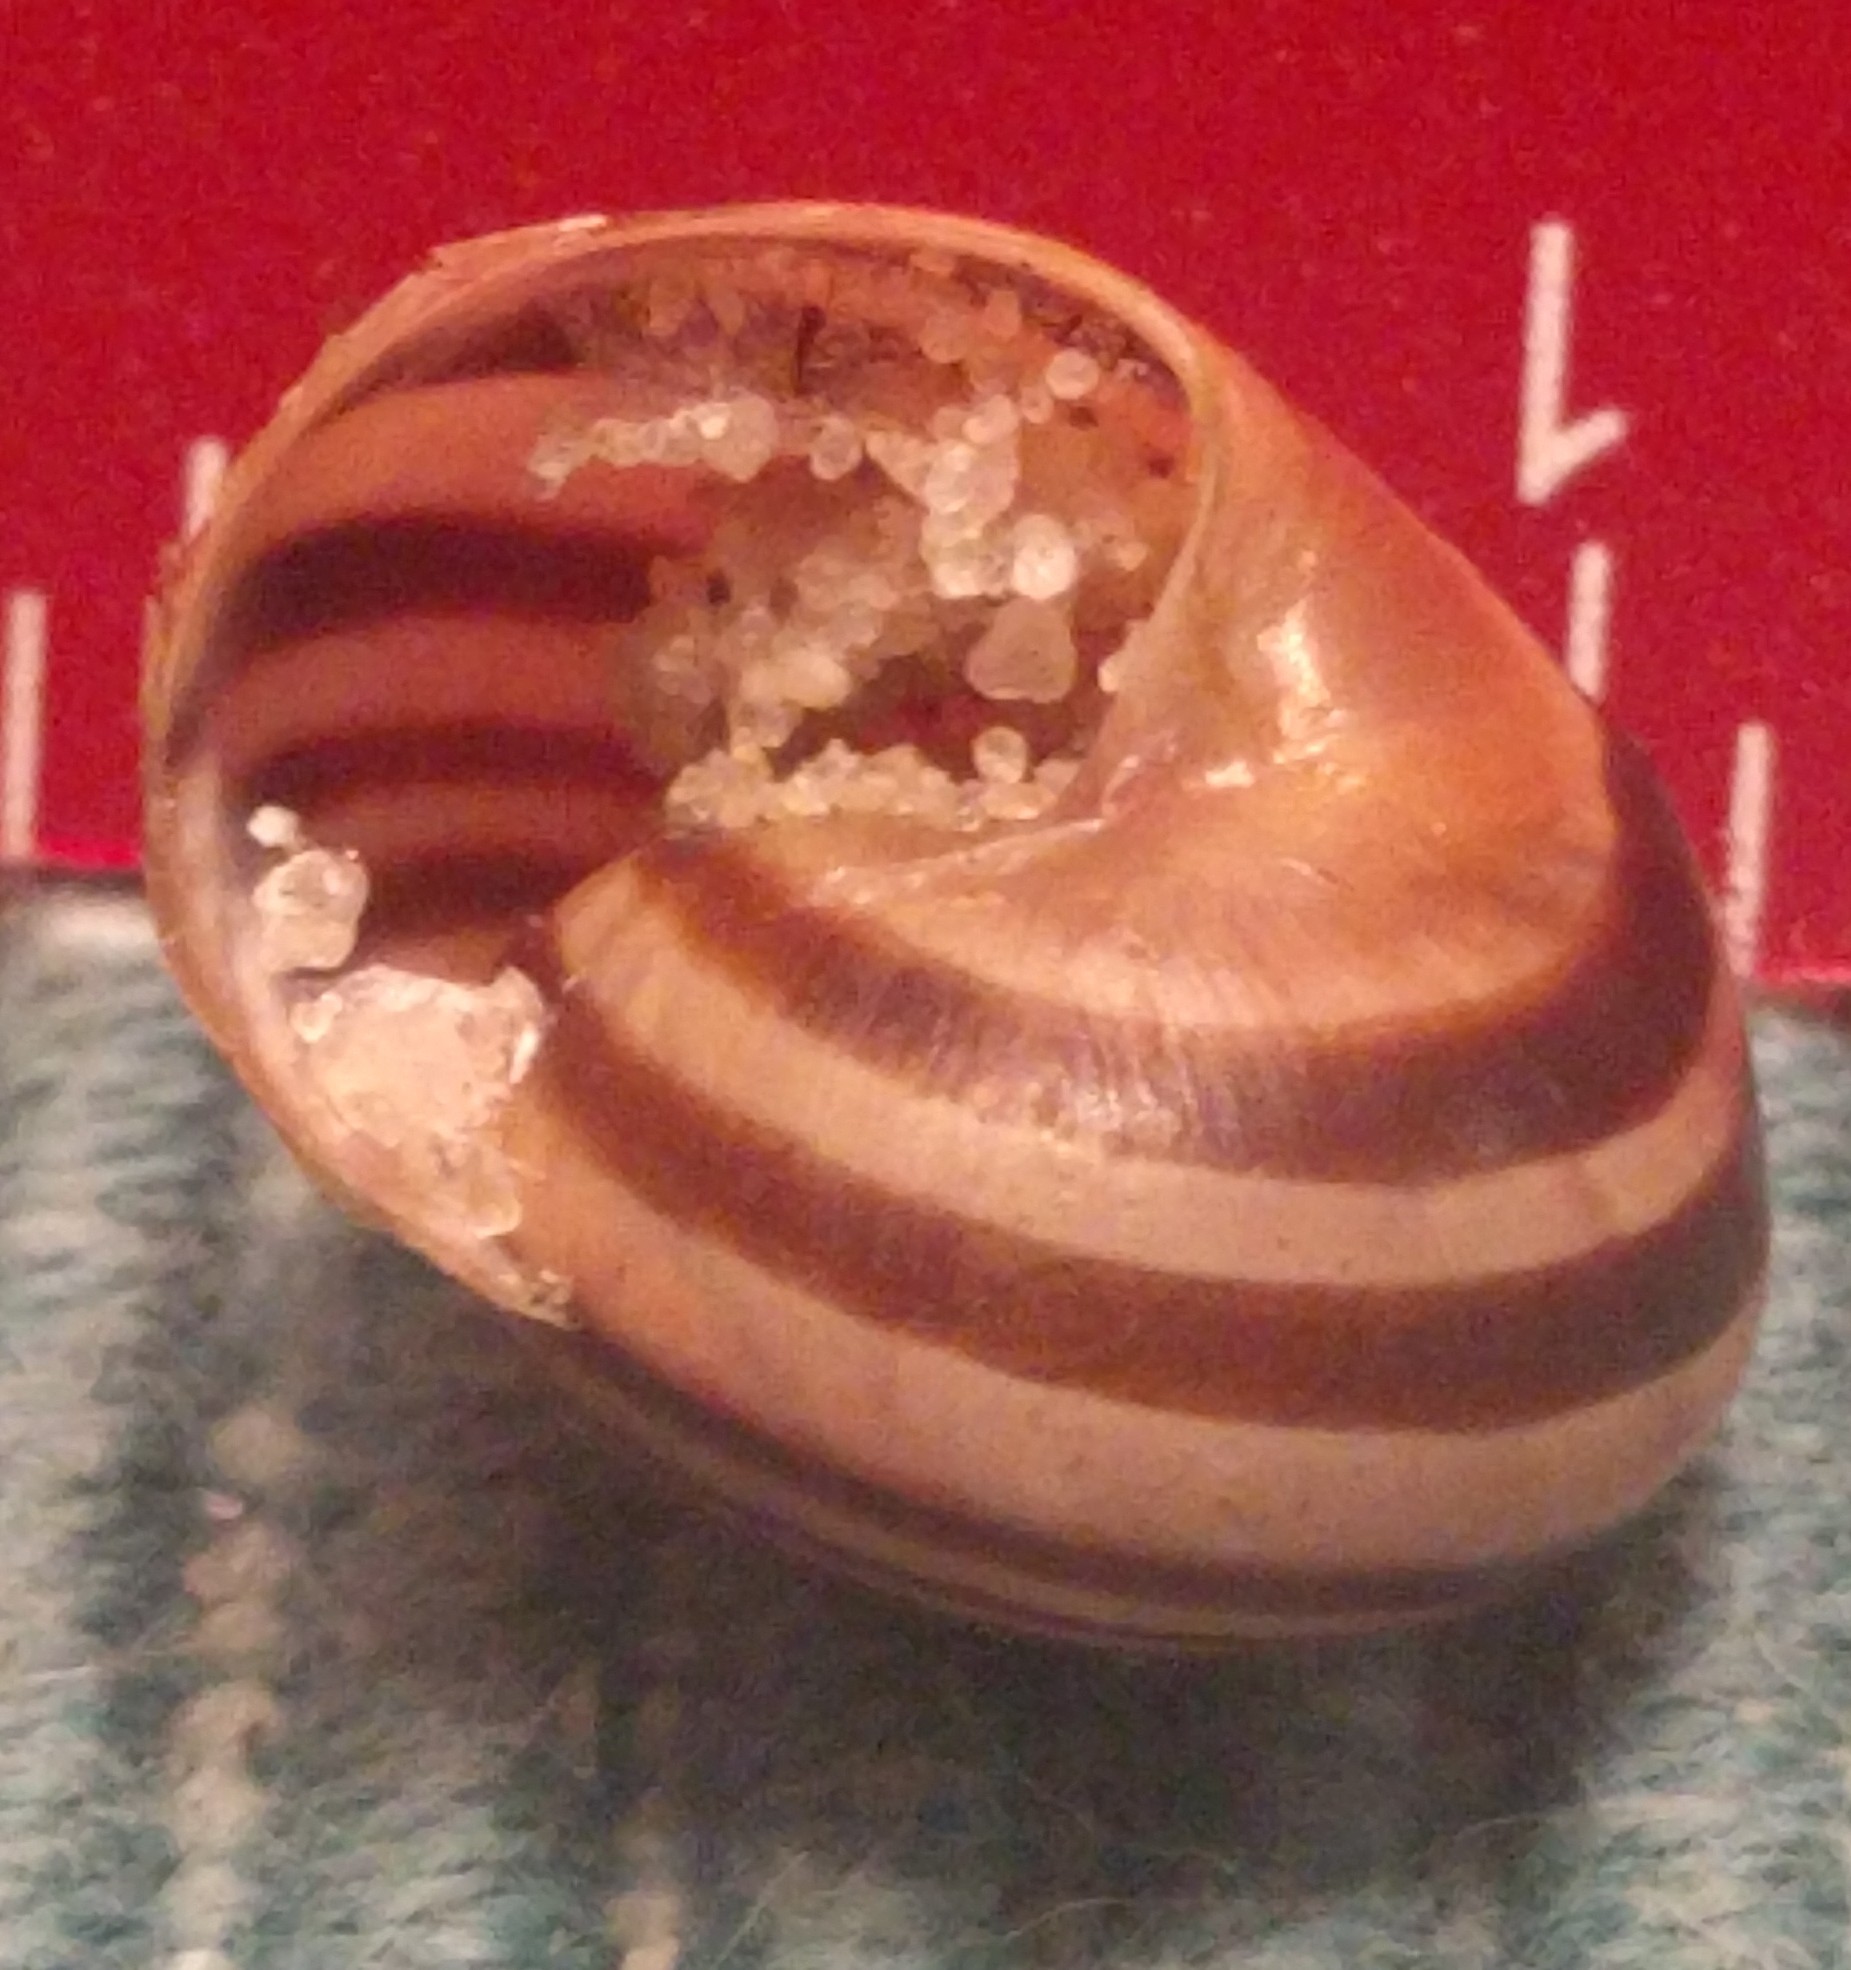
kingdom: Animalia
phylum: Mollusca
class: Gastropoda
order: Stylommatophora
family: Helicidae
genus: Cepaea
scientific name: Cepaea
